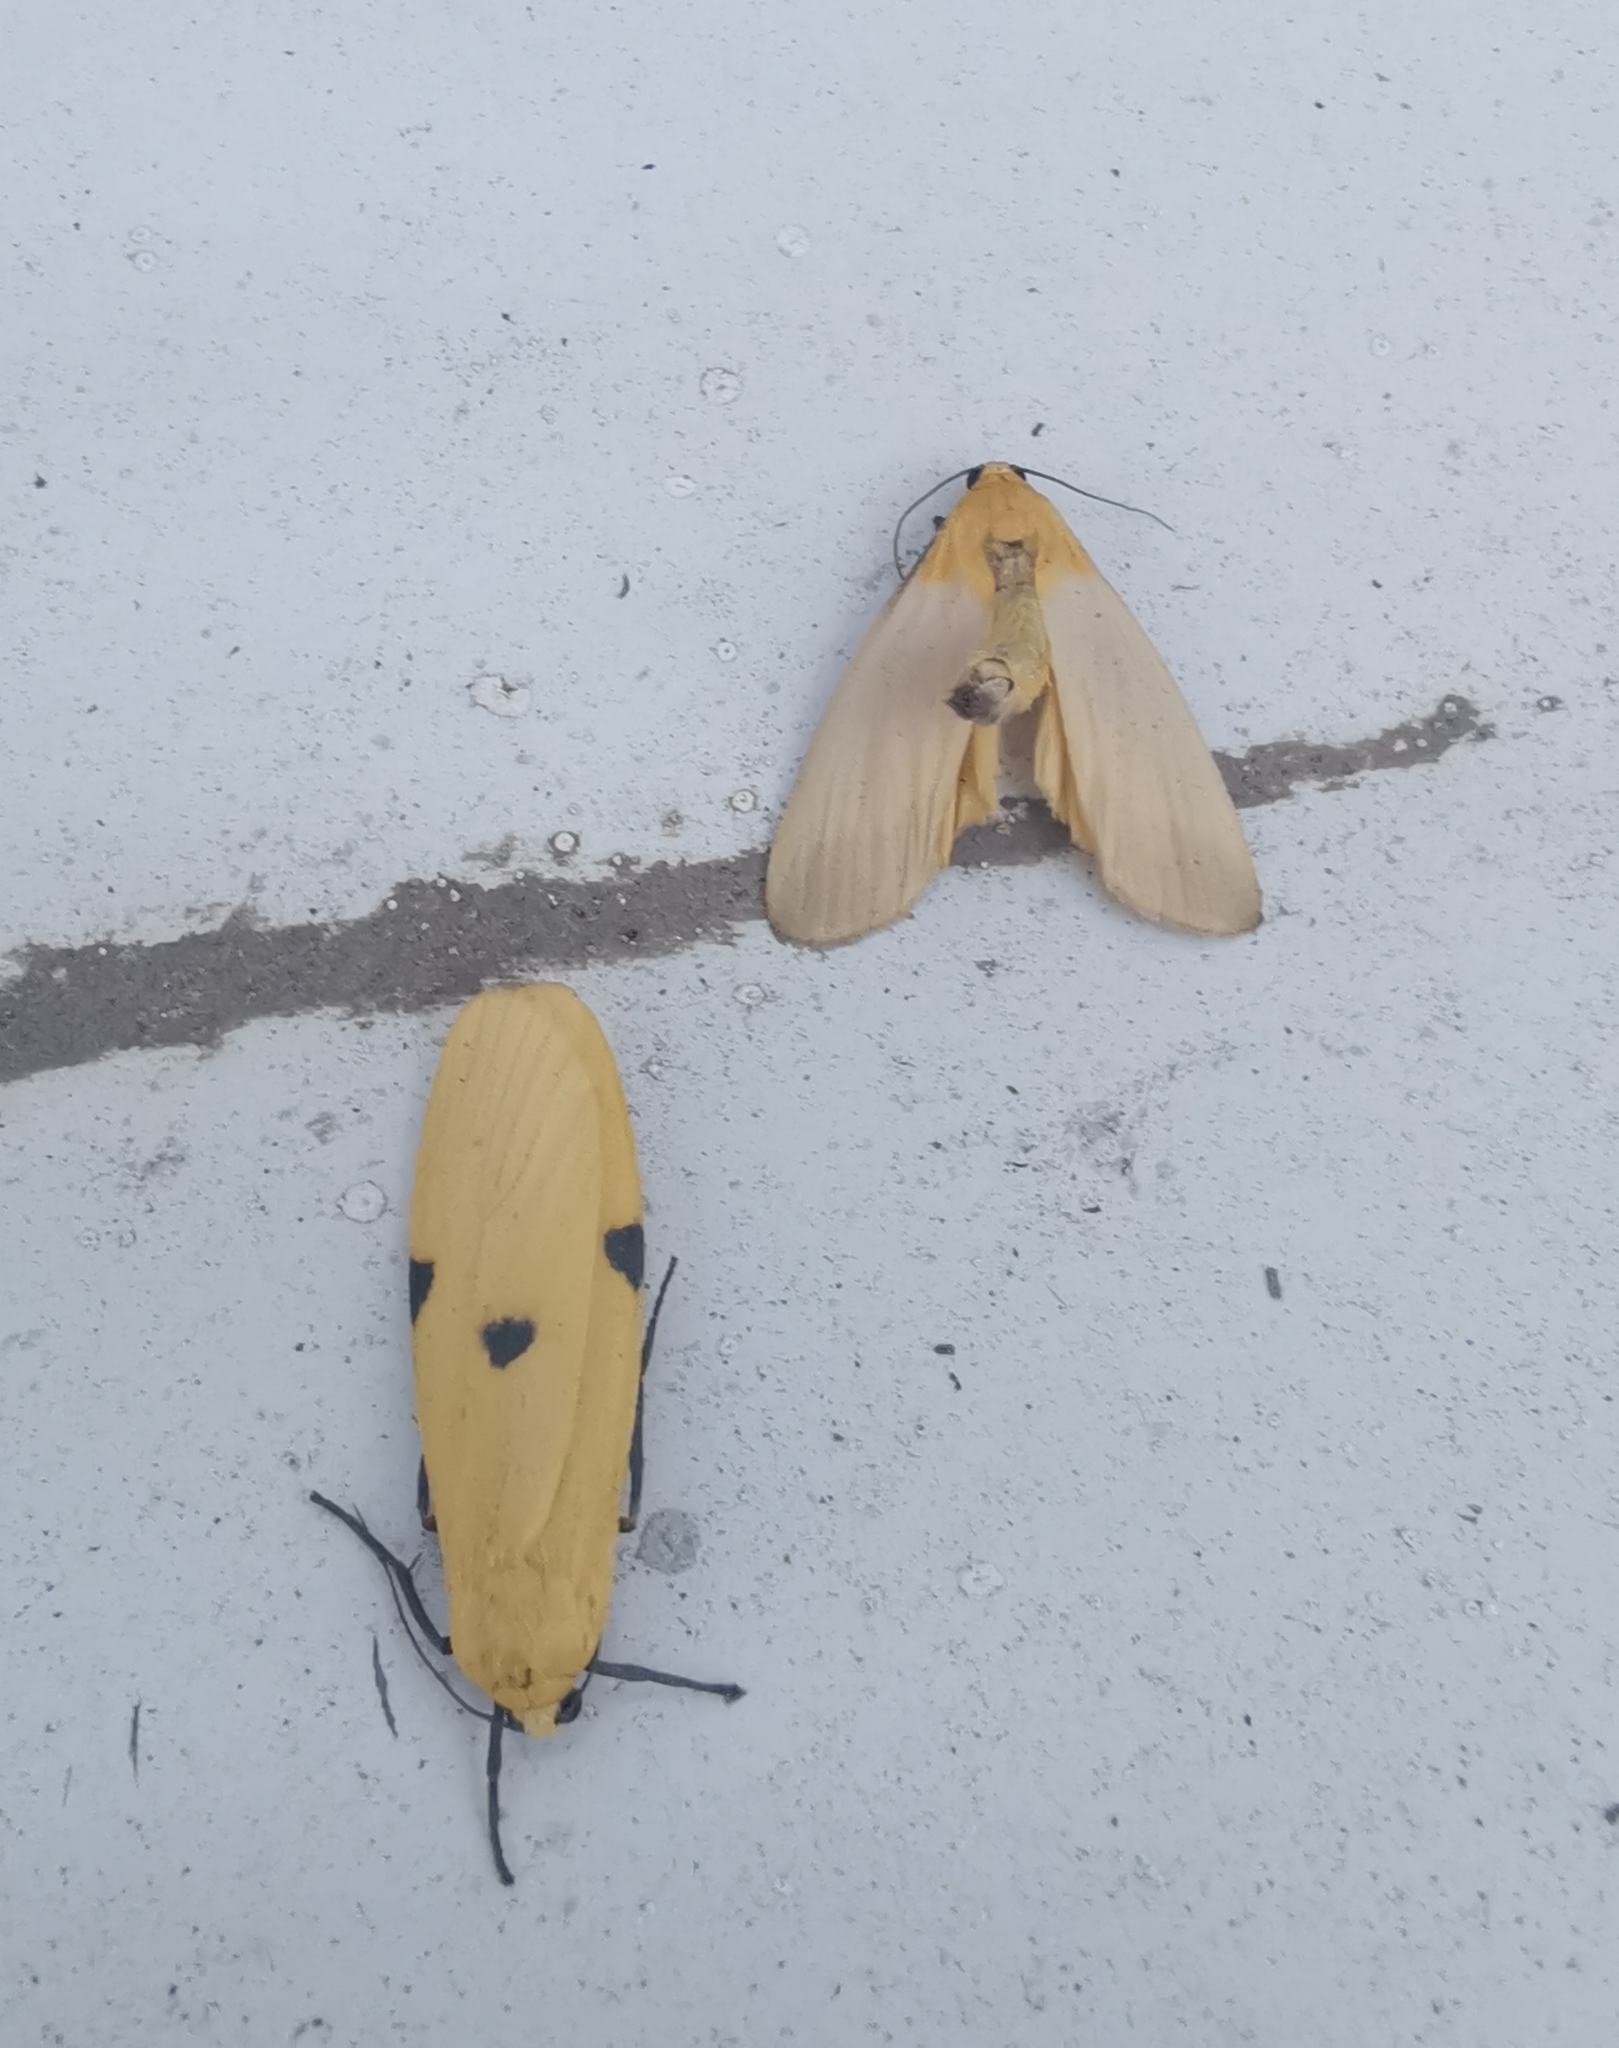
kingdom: Animalia
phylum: Arthropoda
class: Insecta
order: Lepidoptera
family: Erebidae
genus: Lithosia
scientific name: Lithosia quadra
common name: Four-spotted footman
